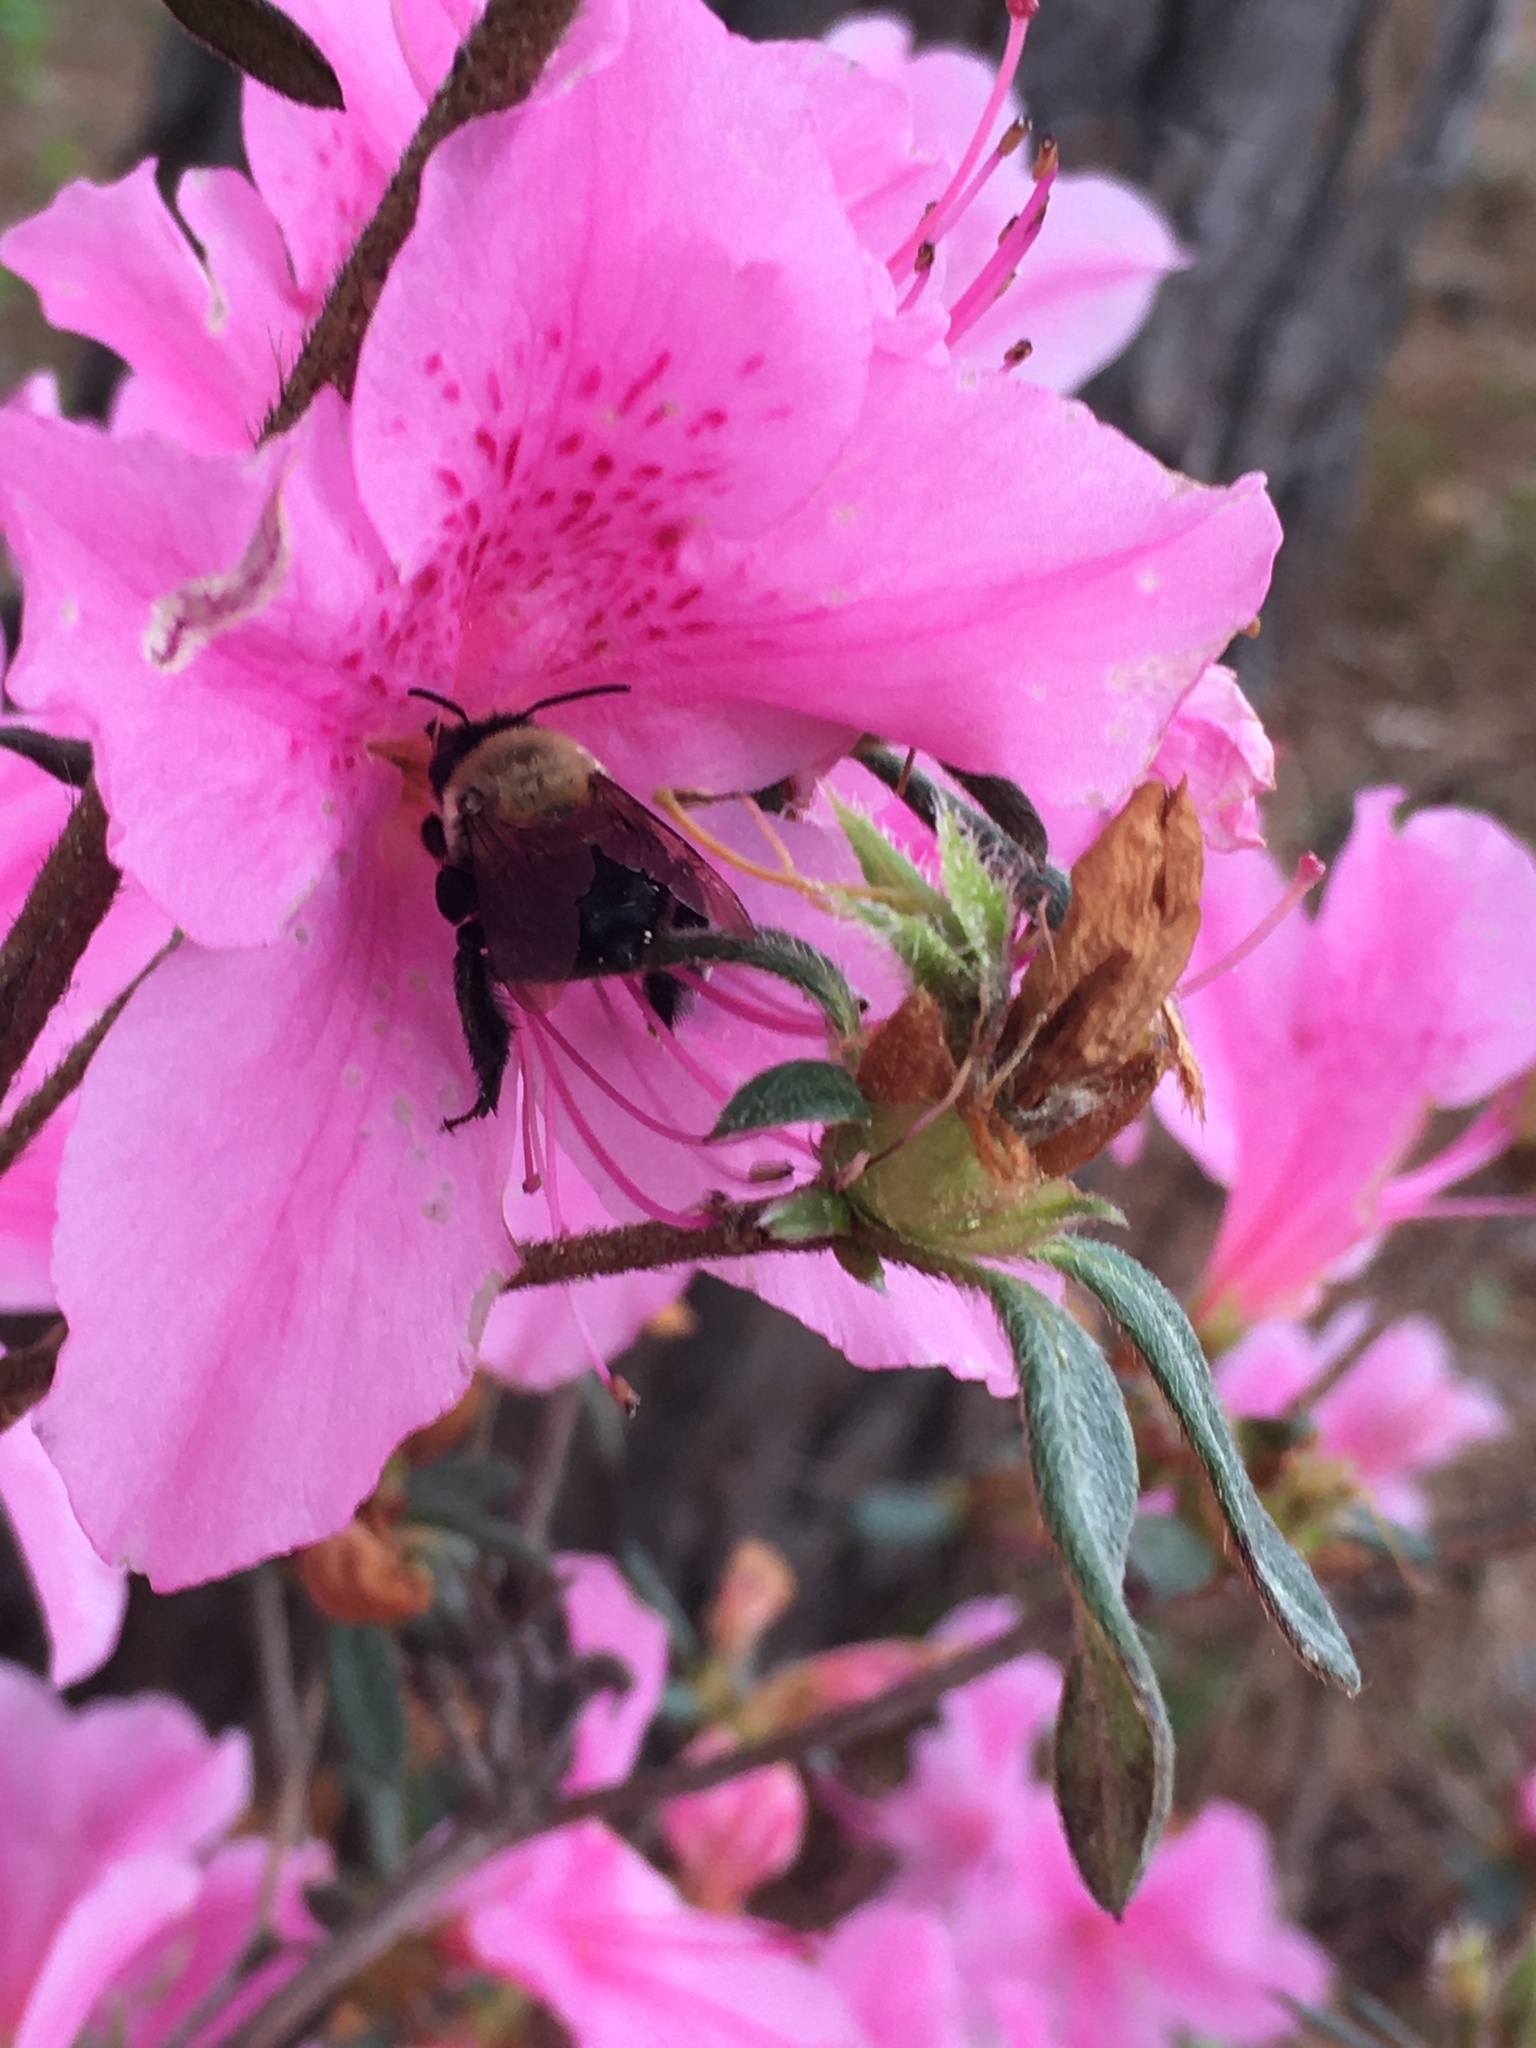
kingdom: Animalia
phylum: Arthropoda
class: Insecta
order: Hymenoptera
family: Apidae
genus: Habropoda
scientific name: Habropoda laboriosa
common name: Southeastern blueberry bee
